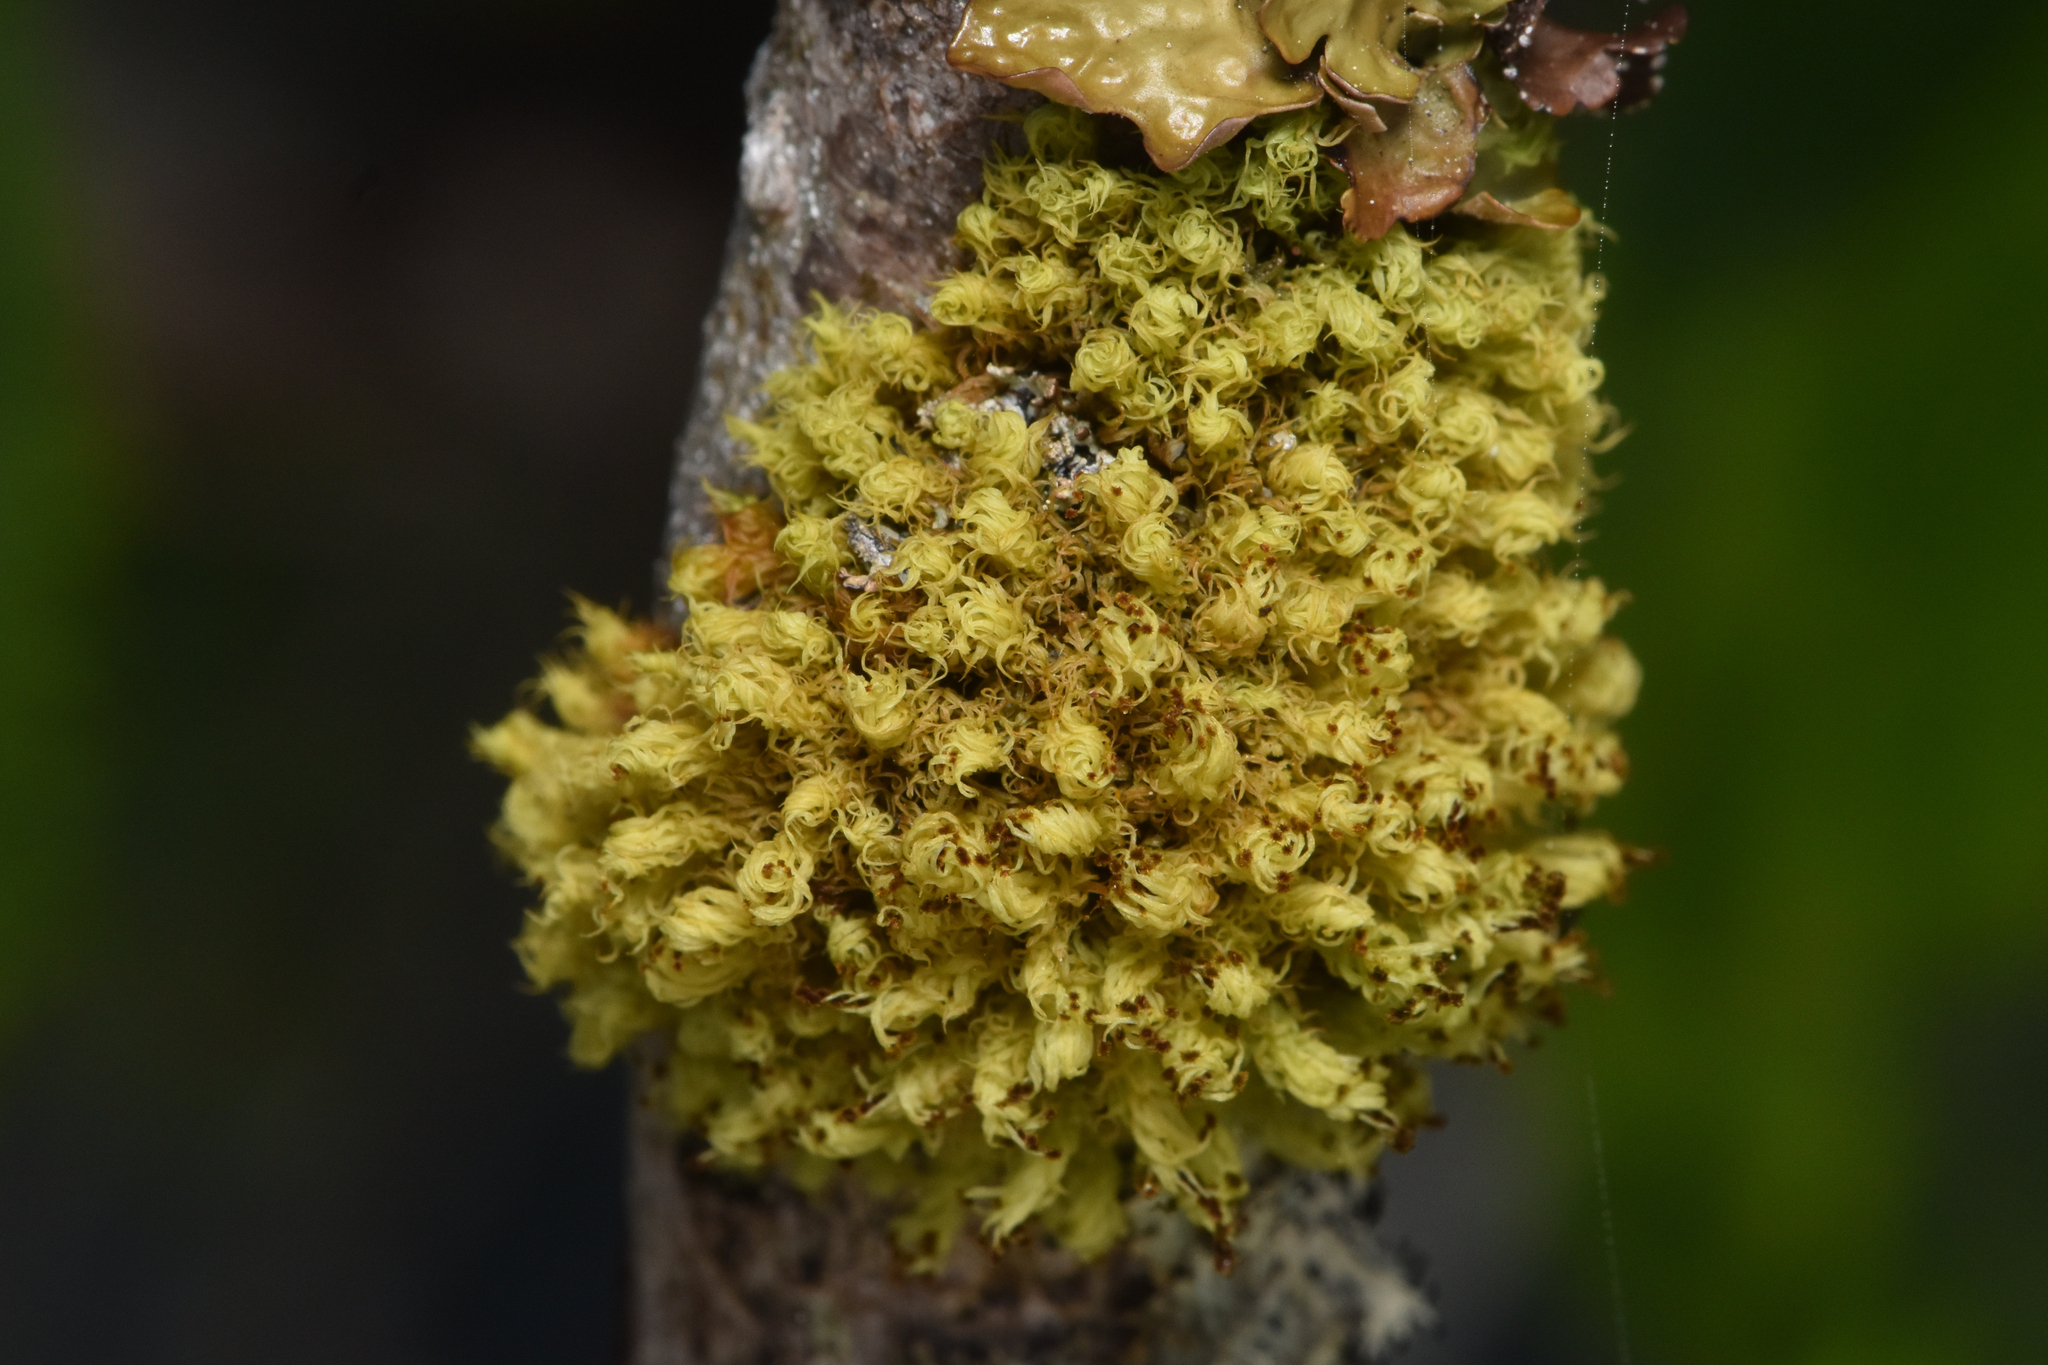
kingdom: Plantae
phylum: Bryophyta
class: Bryopsida
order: Orthotrichales
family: Orthotrichaceae
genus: Plenogemma
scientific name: Plenogemma phyllantha
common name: Frizzled pincushion
